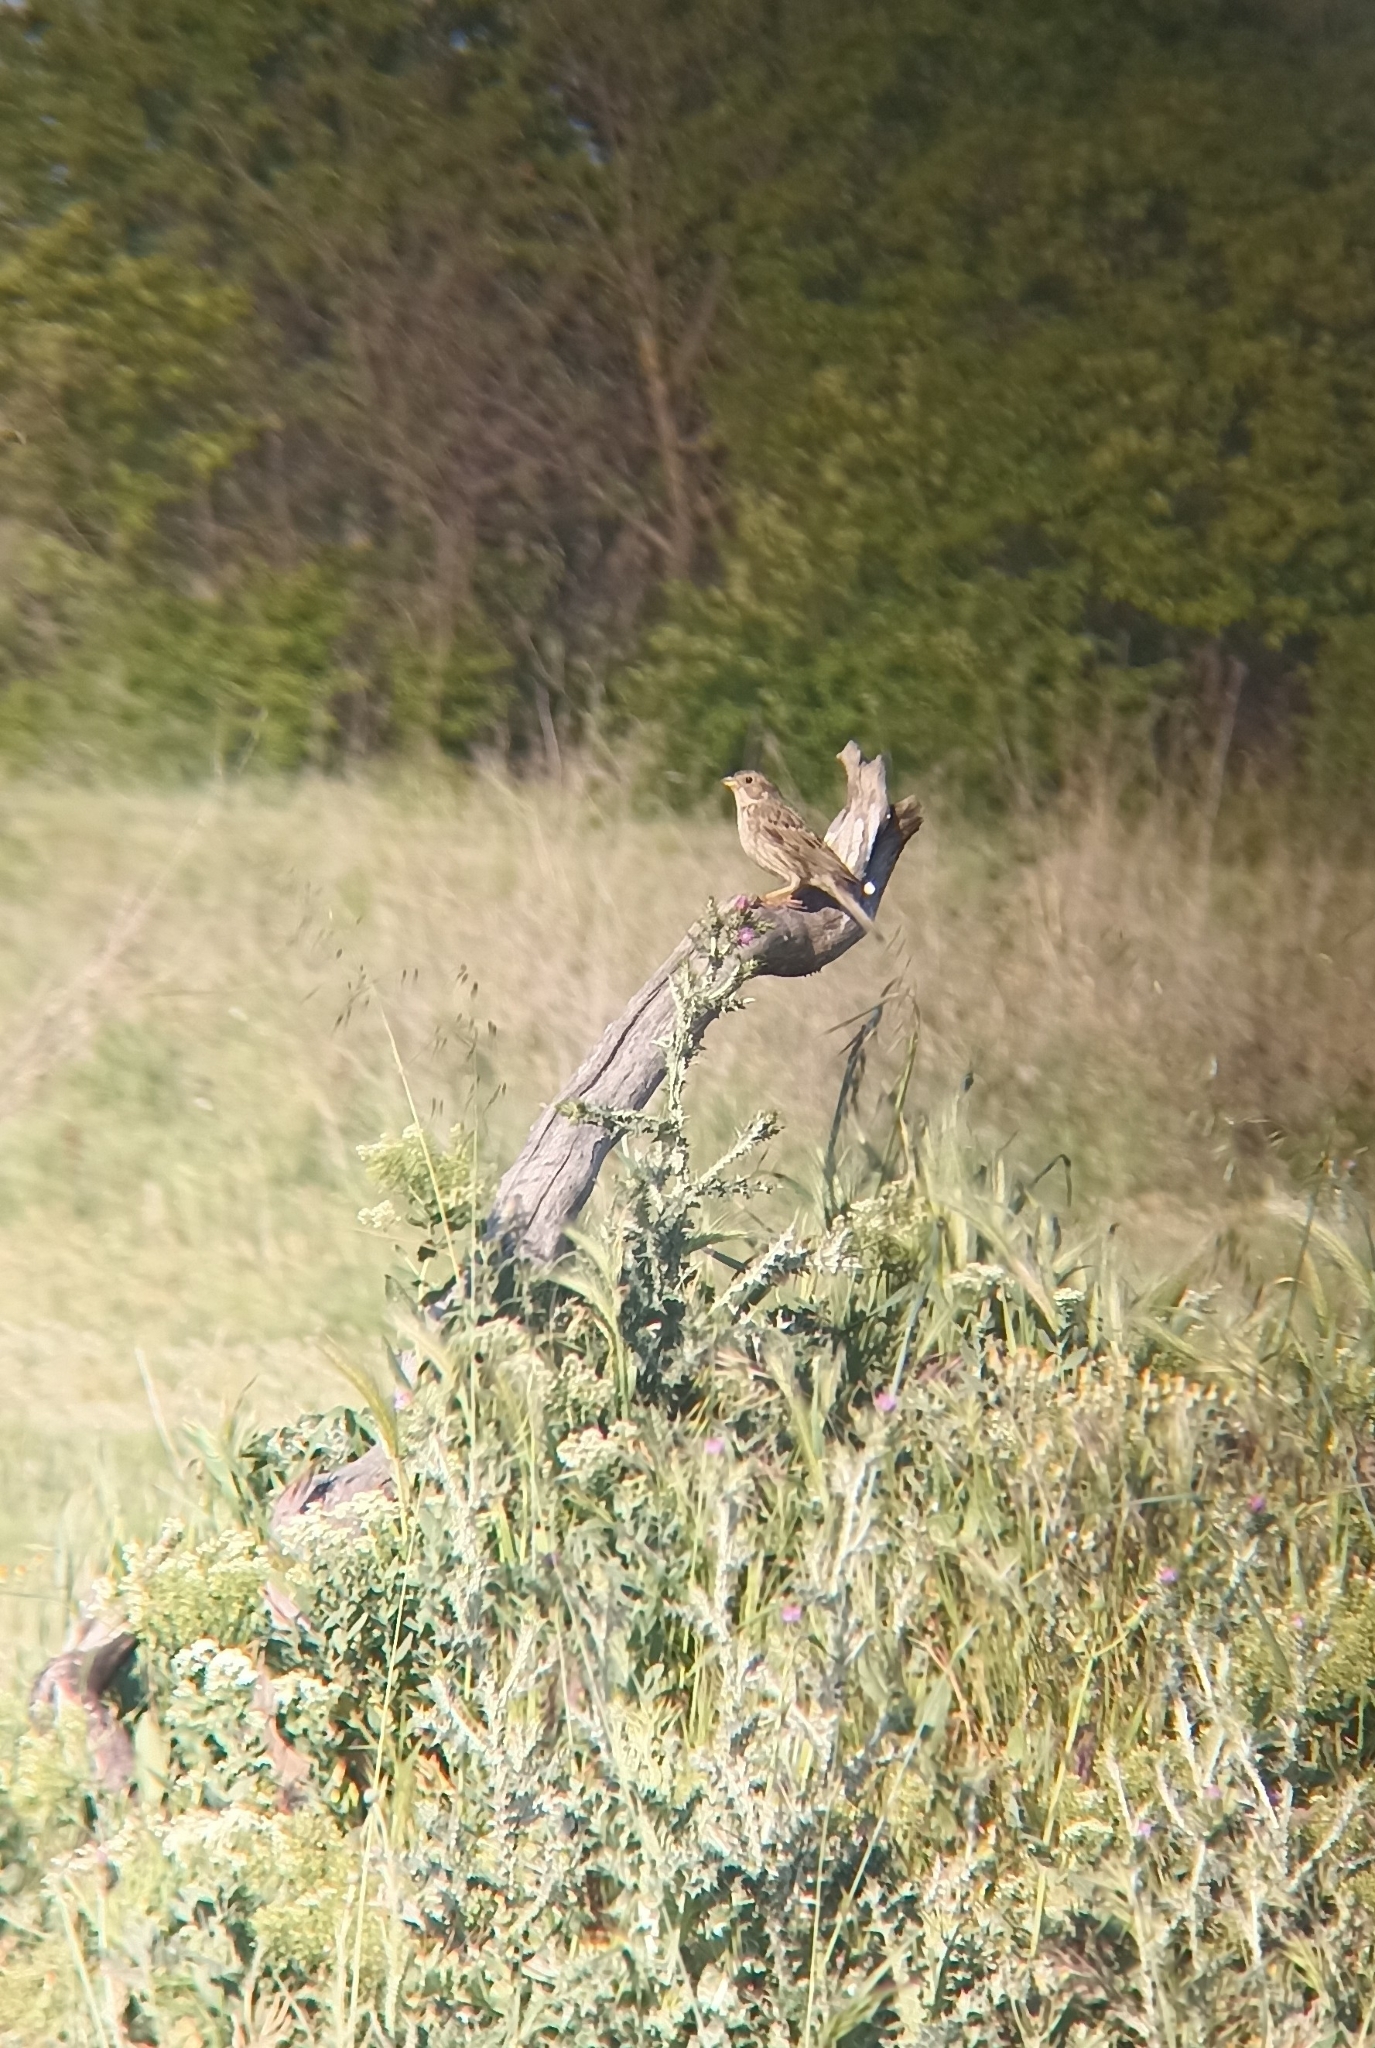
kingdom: Animalia
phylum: Chordata
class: Aves
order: Passeriformes
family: Emberizidae
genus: Emberiza
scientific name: Emberiza calandra
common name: Corn bunting
